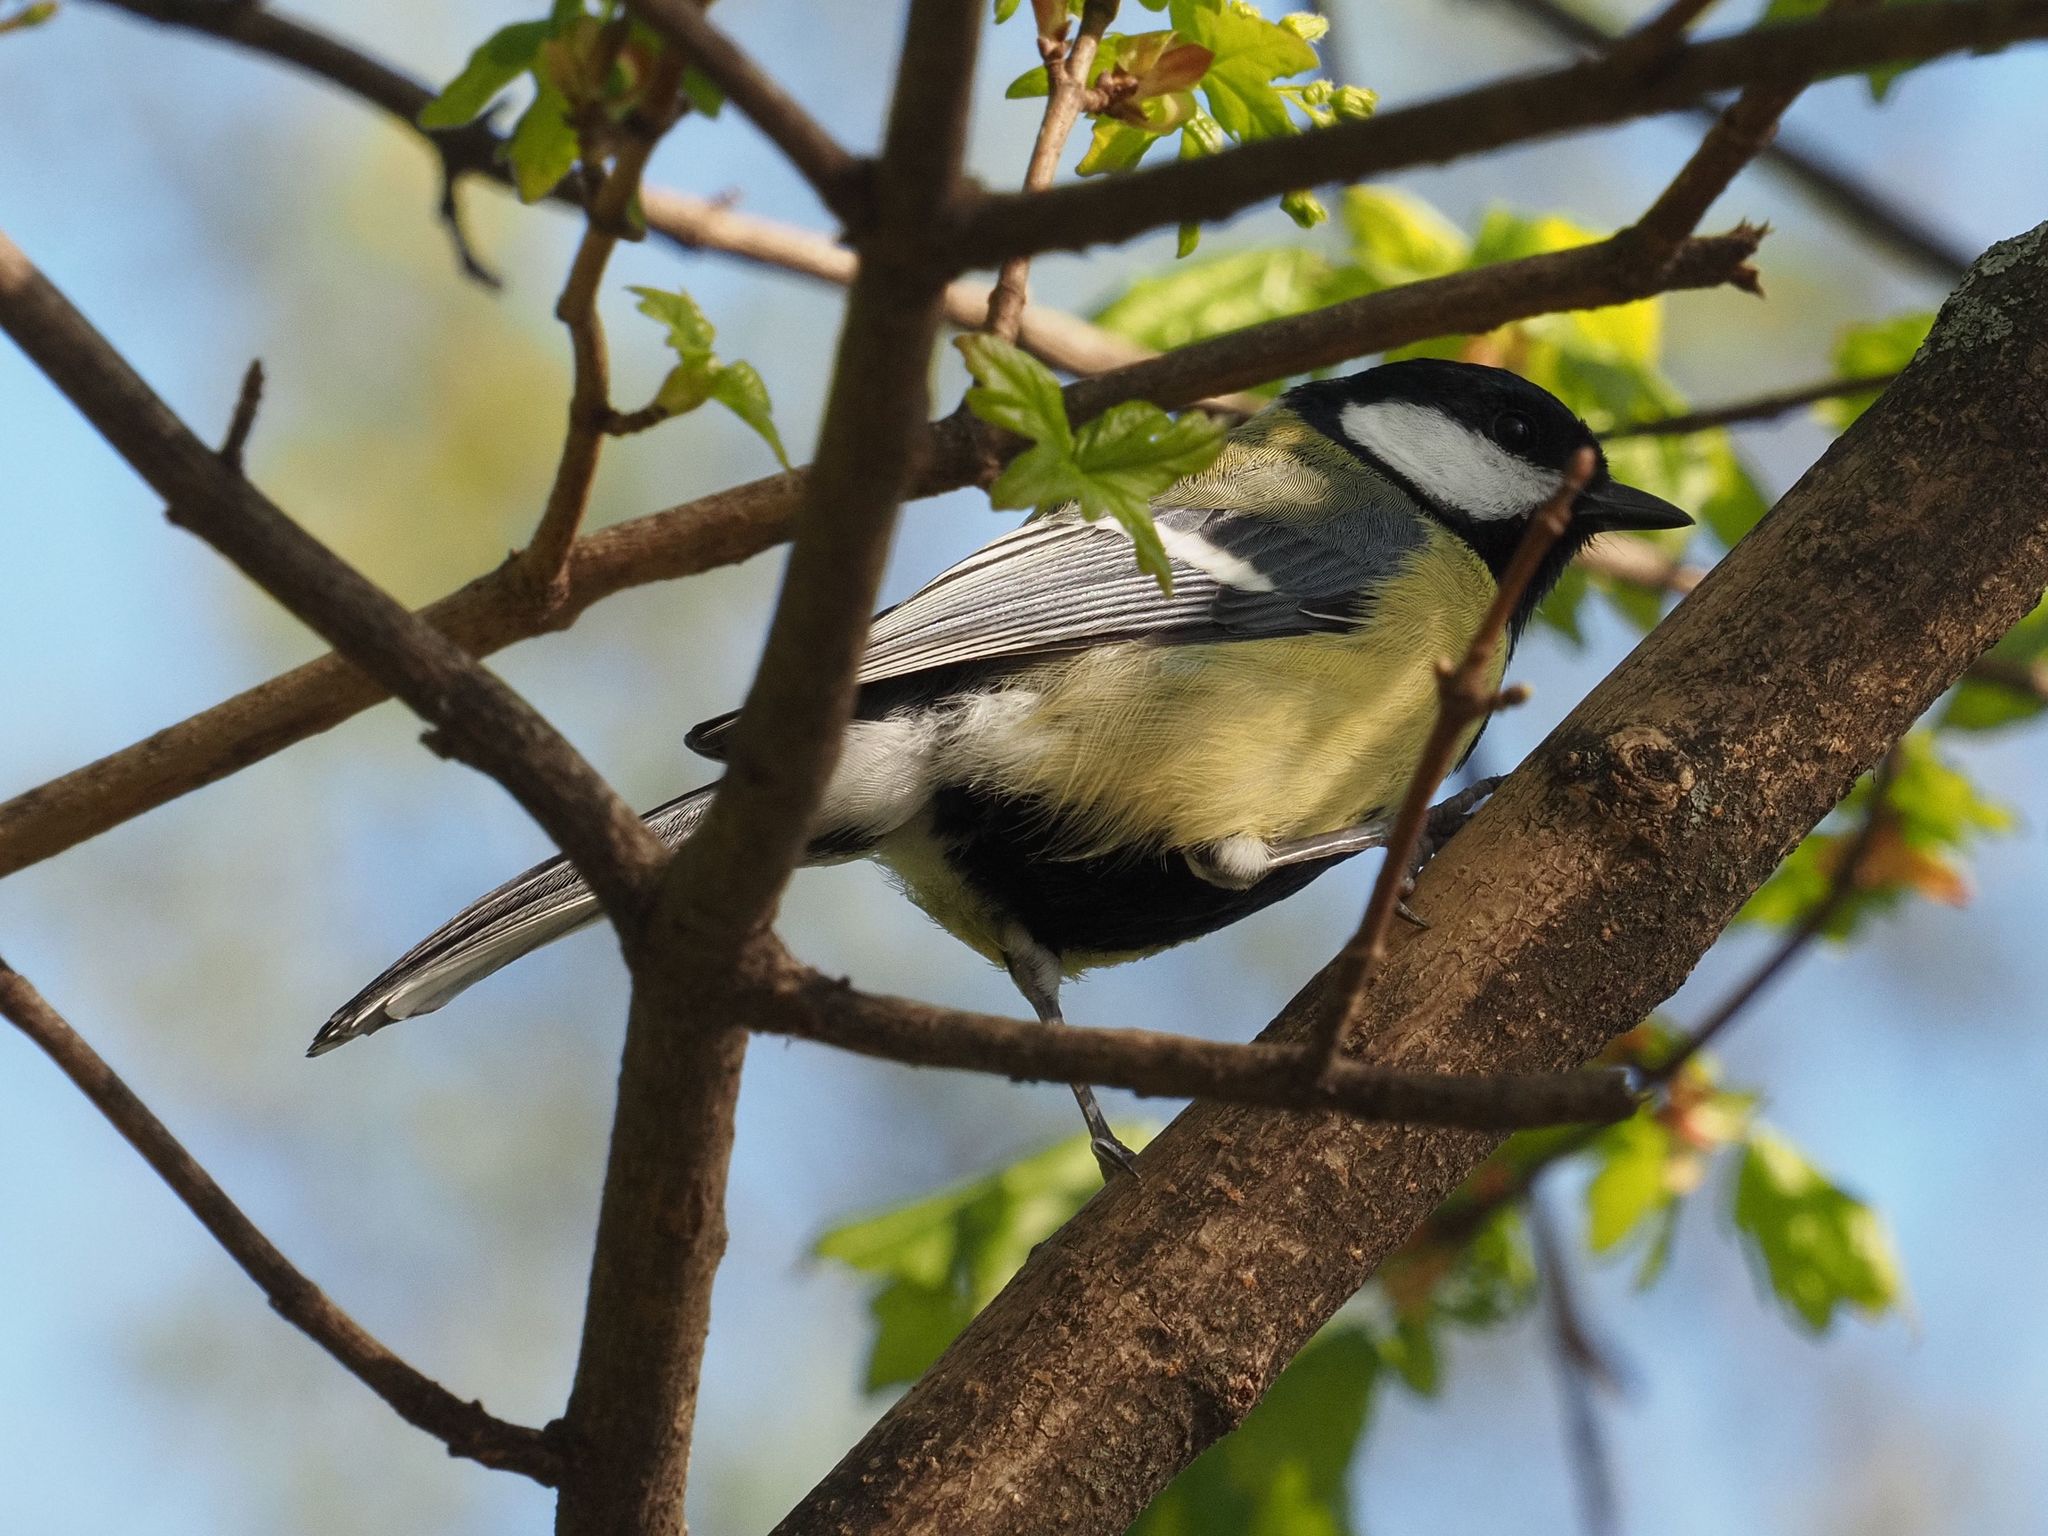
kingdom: Animalia
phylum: Chordata
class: Aves
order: Passeriformes
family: Paridae
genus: Parus
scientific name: Parus major
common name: Great tit
